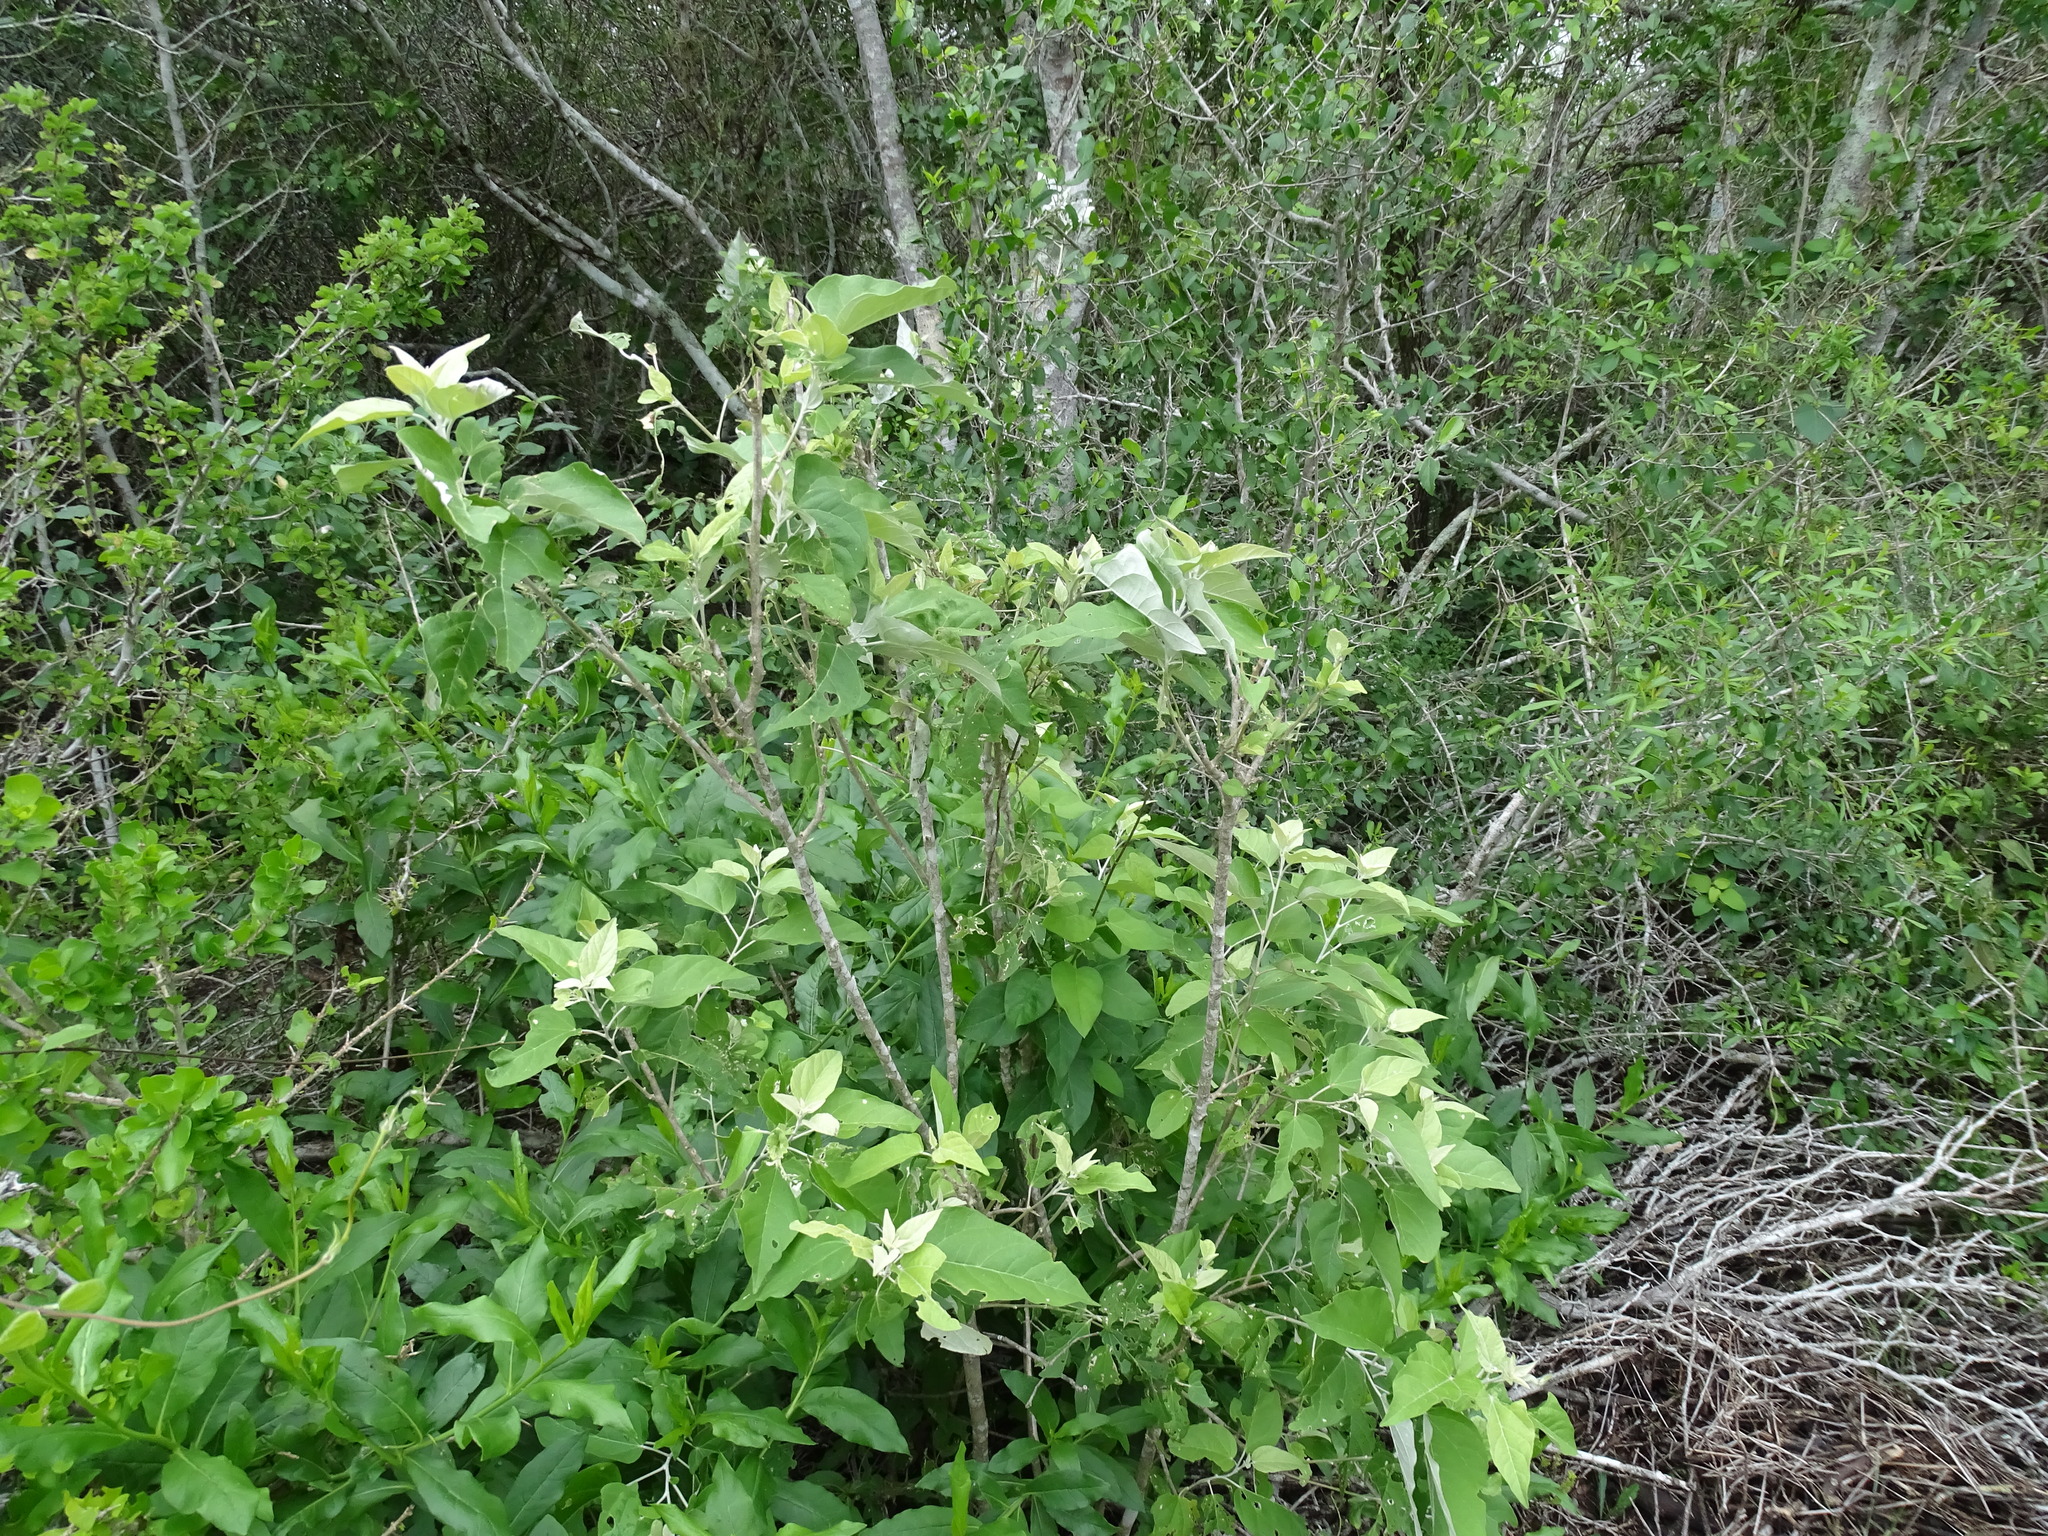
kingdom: Plantae
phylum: Tracheophyta
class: Magnoliopsida
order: Malpighiales
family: Euphorbiaceae
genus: Croton
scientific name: Croton watsonii
